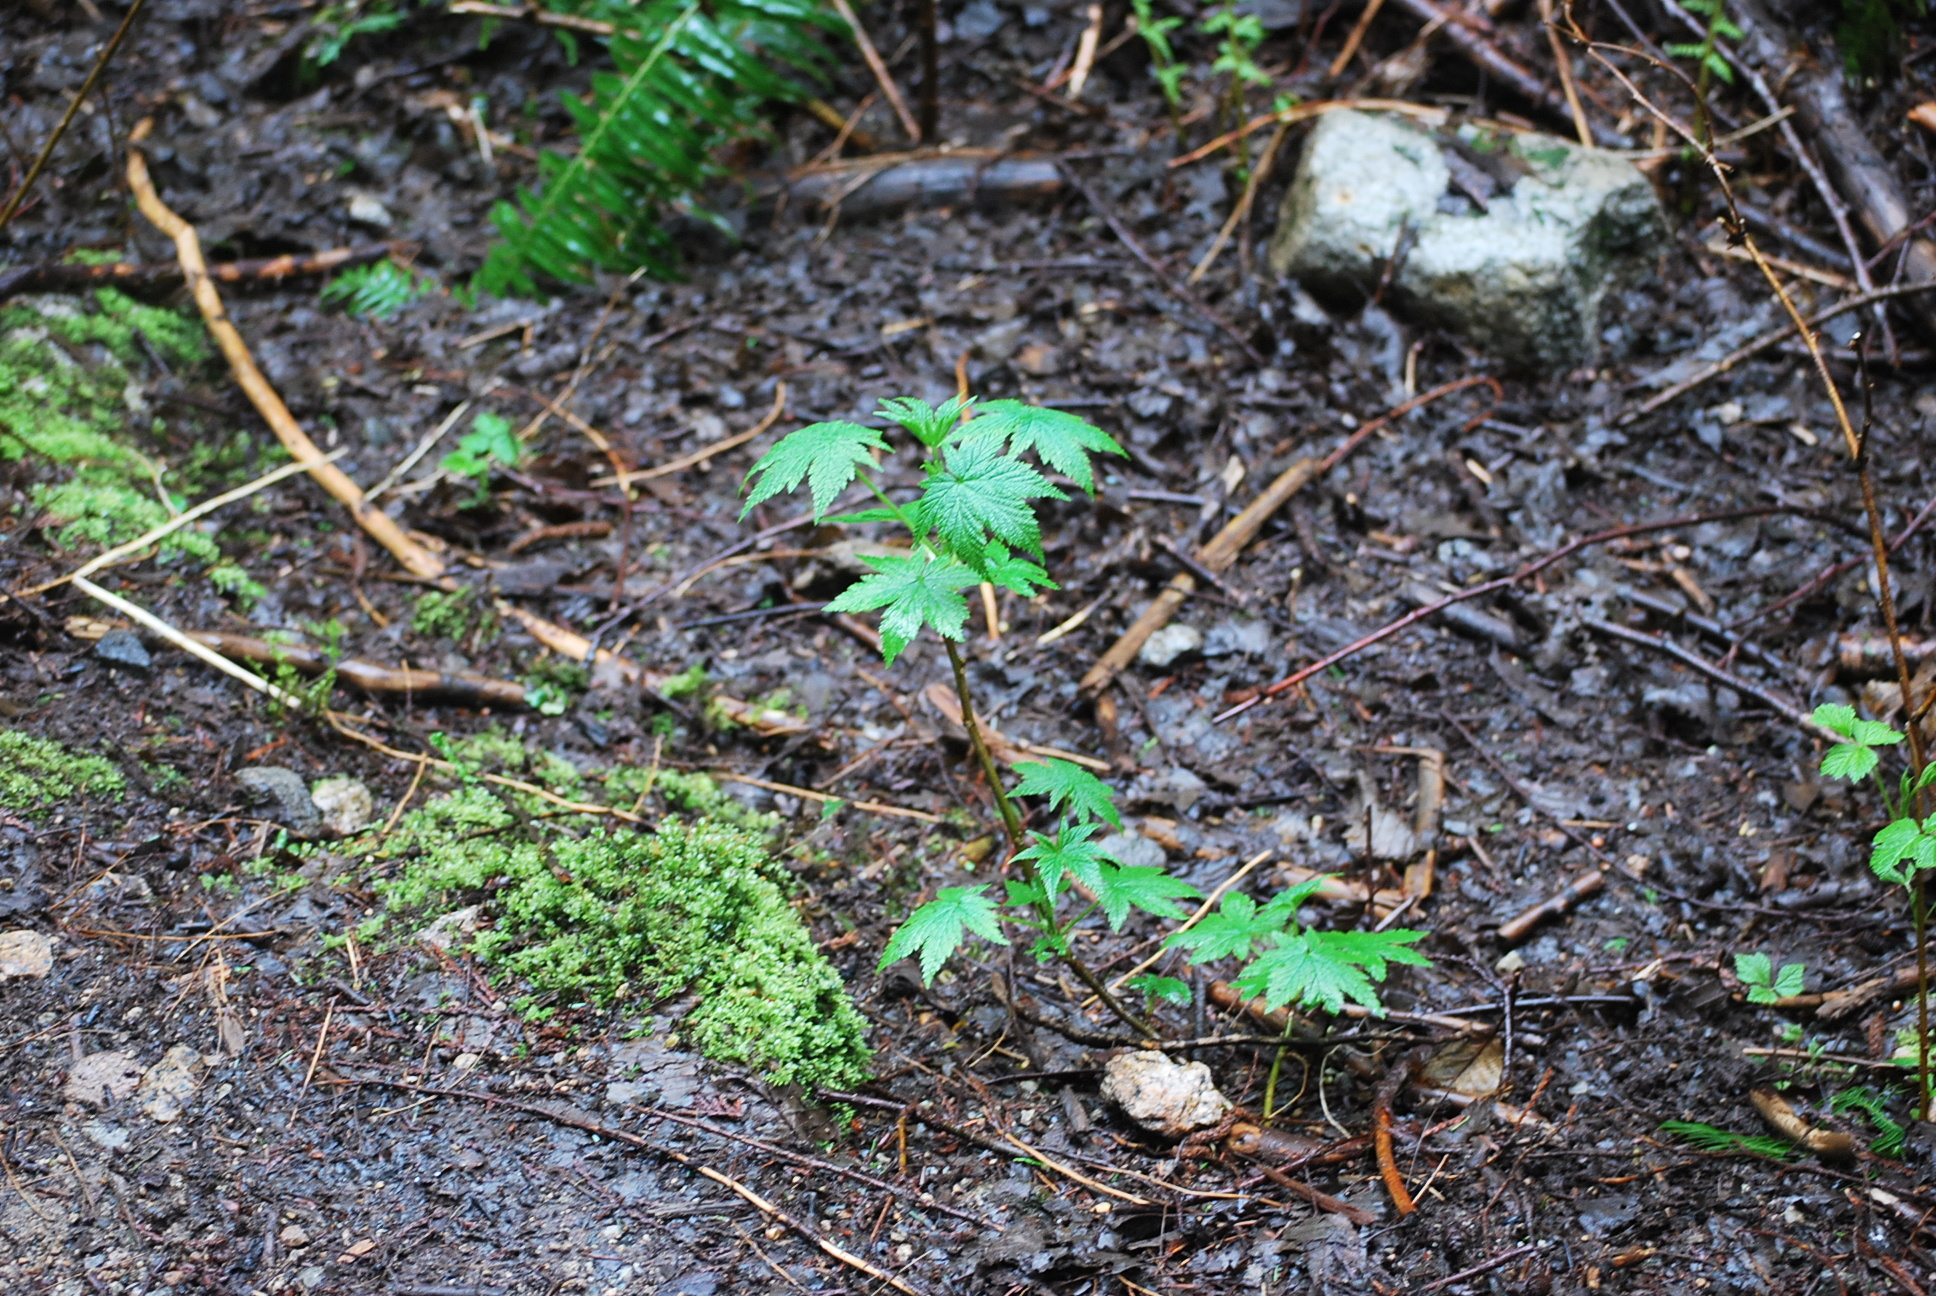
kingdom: Plantae
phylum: Tracheophyta
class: Magnoliopsida
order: Saxifragales
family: Grossulariaceae
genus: Ribes
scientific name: Ribes bracteosum
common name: California black currant
